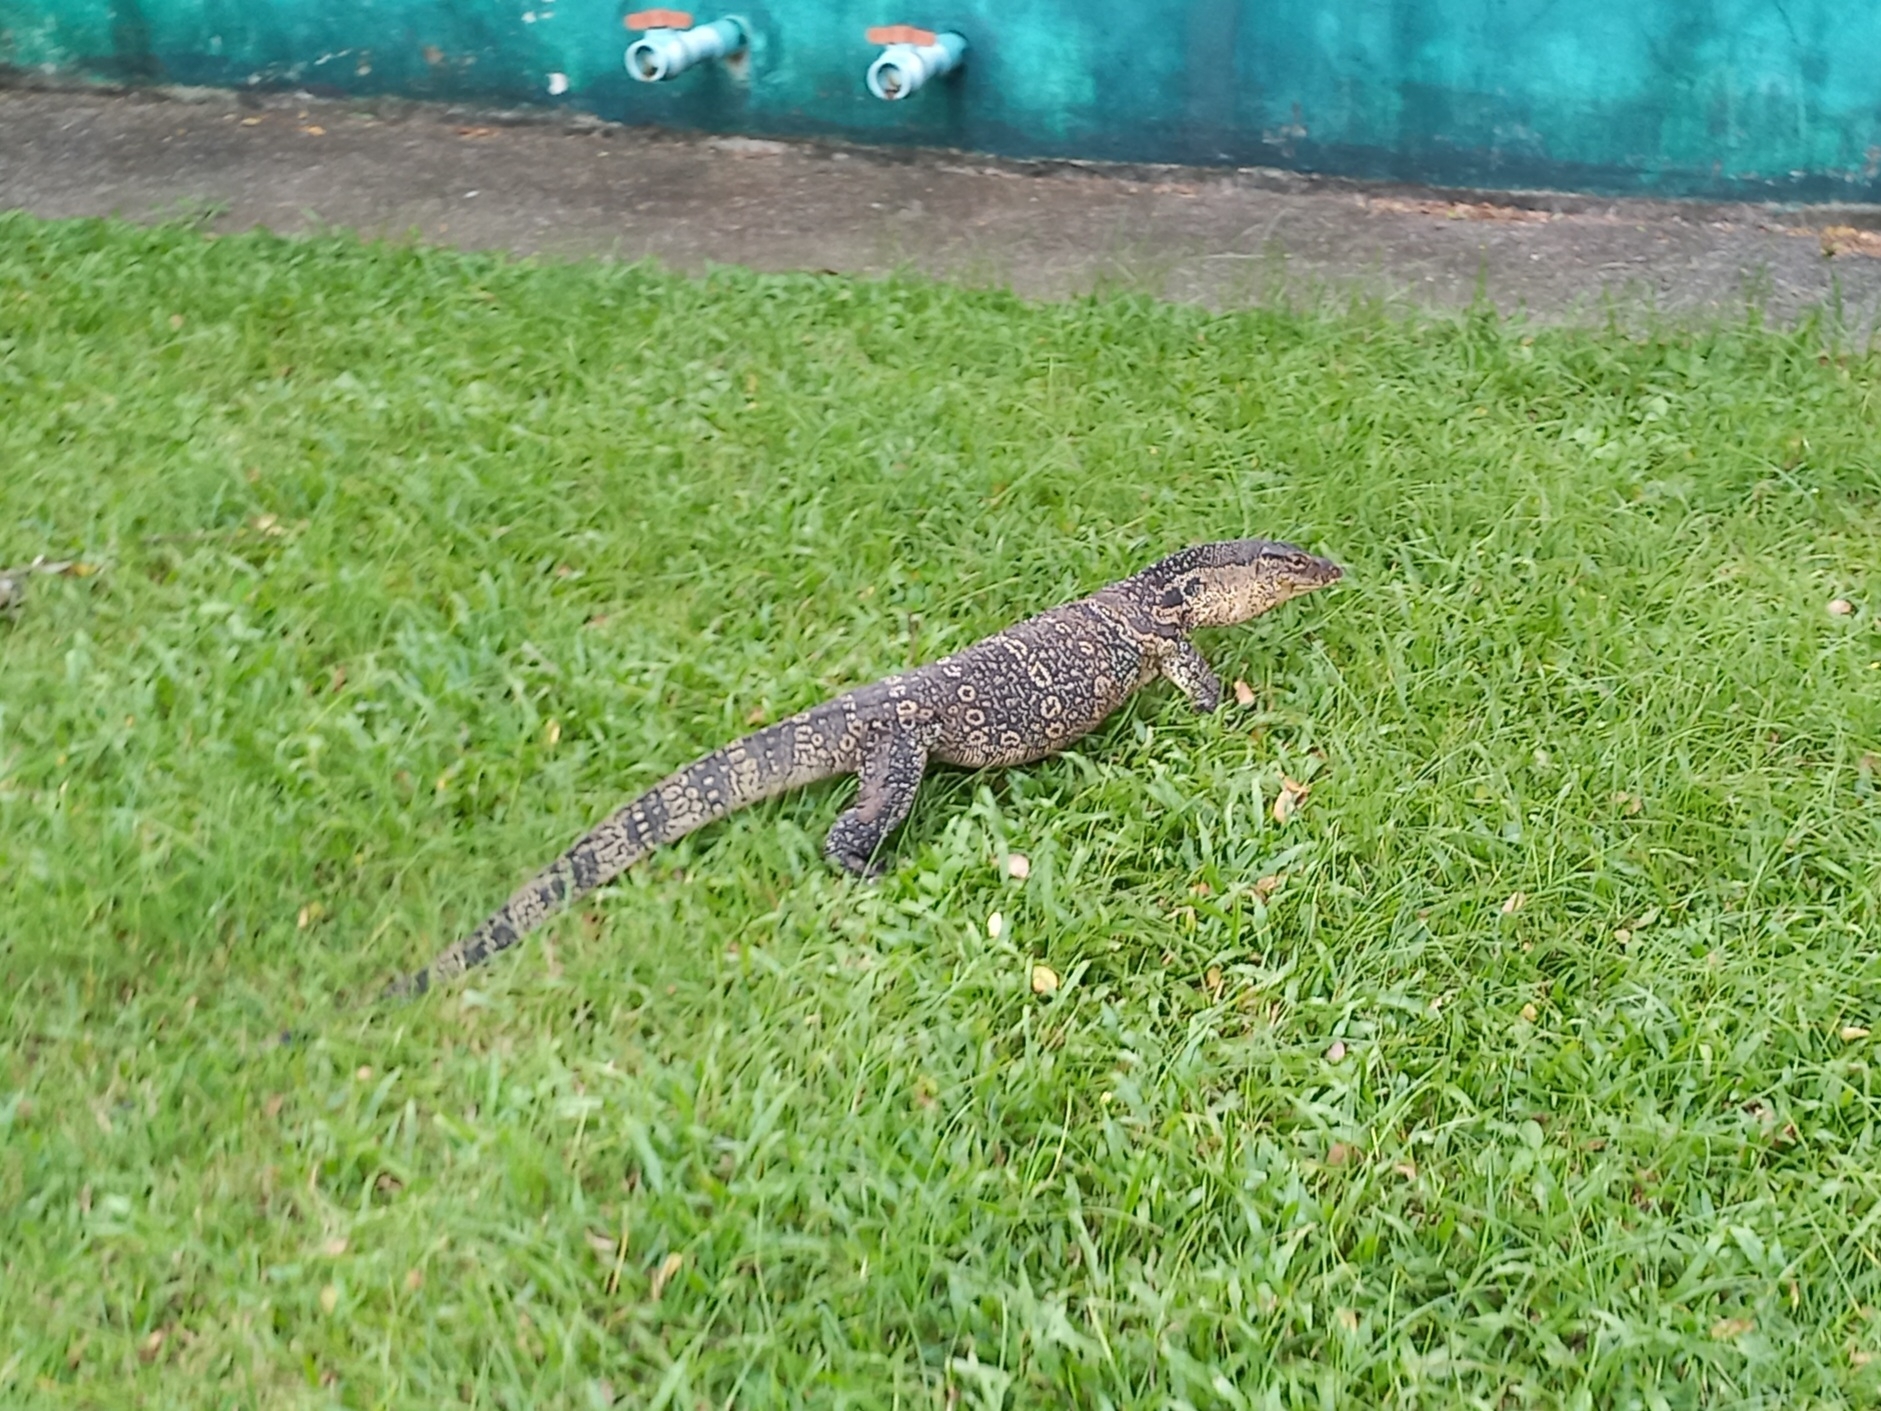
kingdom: Animalia
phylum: Chordata
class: Squamata
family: Varanidae
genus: Varanus
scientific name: Varanus salvator
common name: Common water monitor
